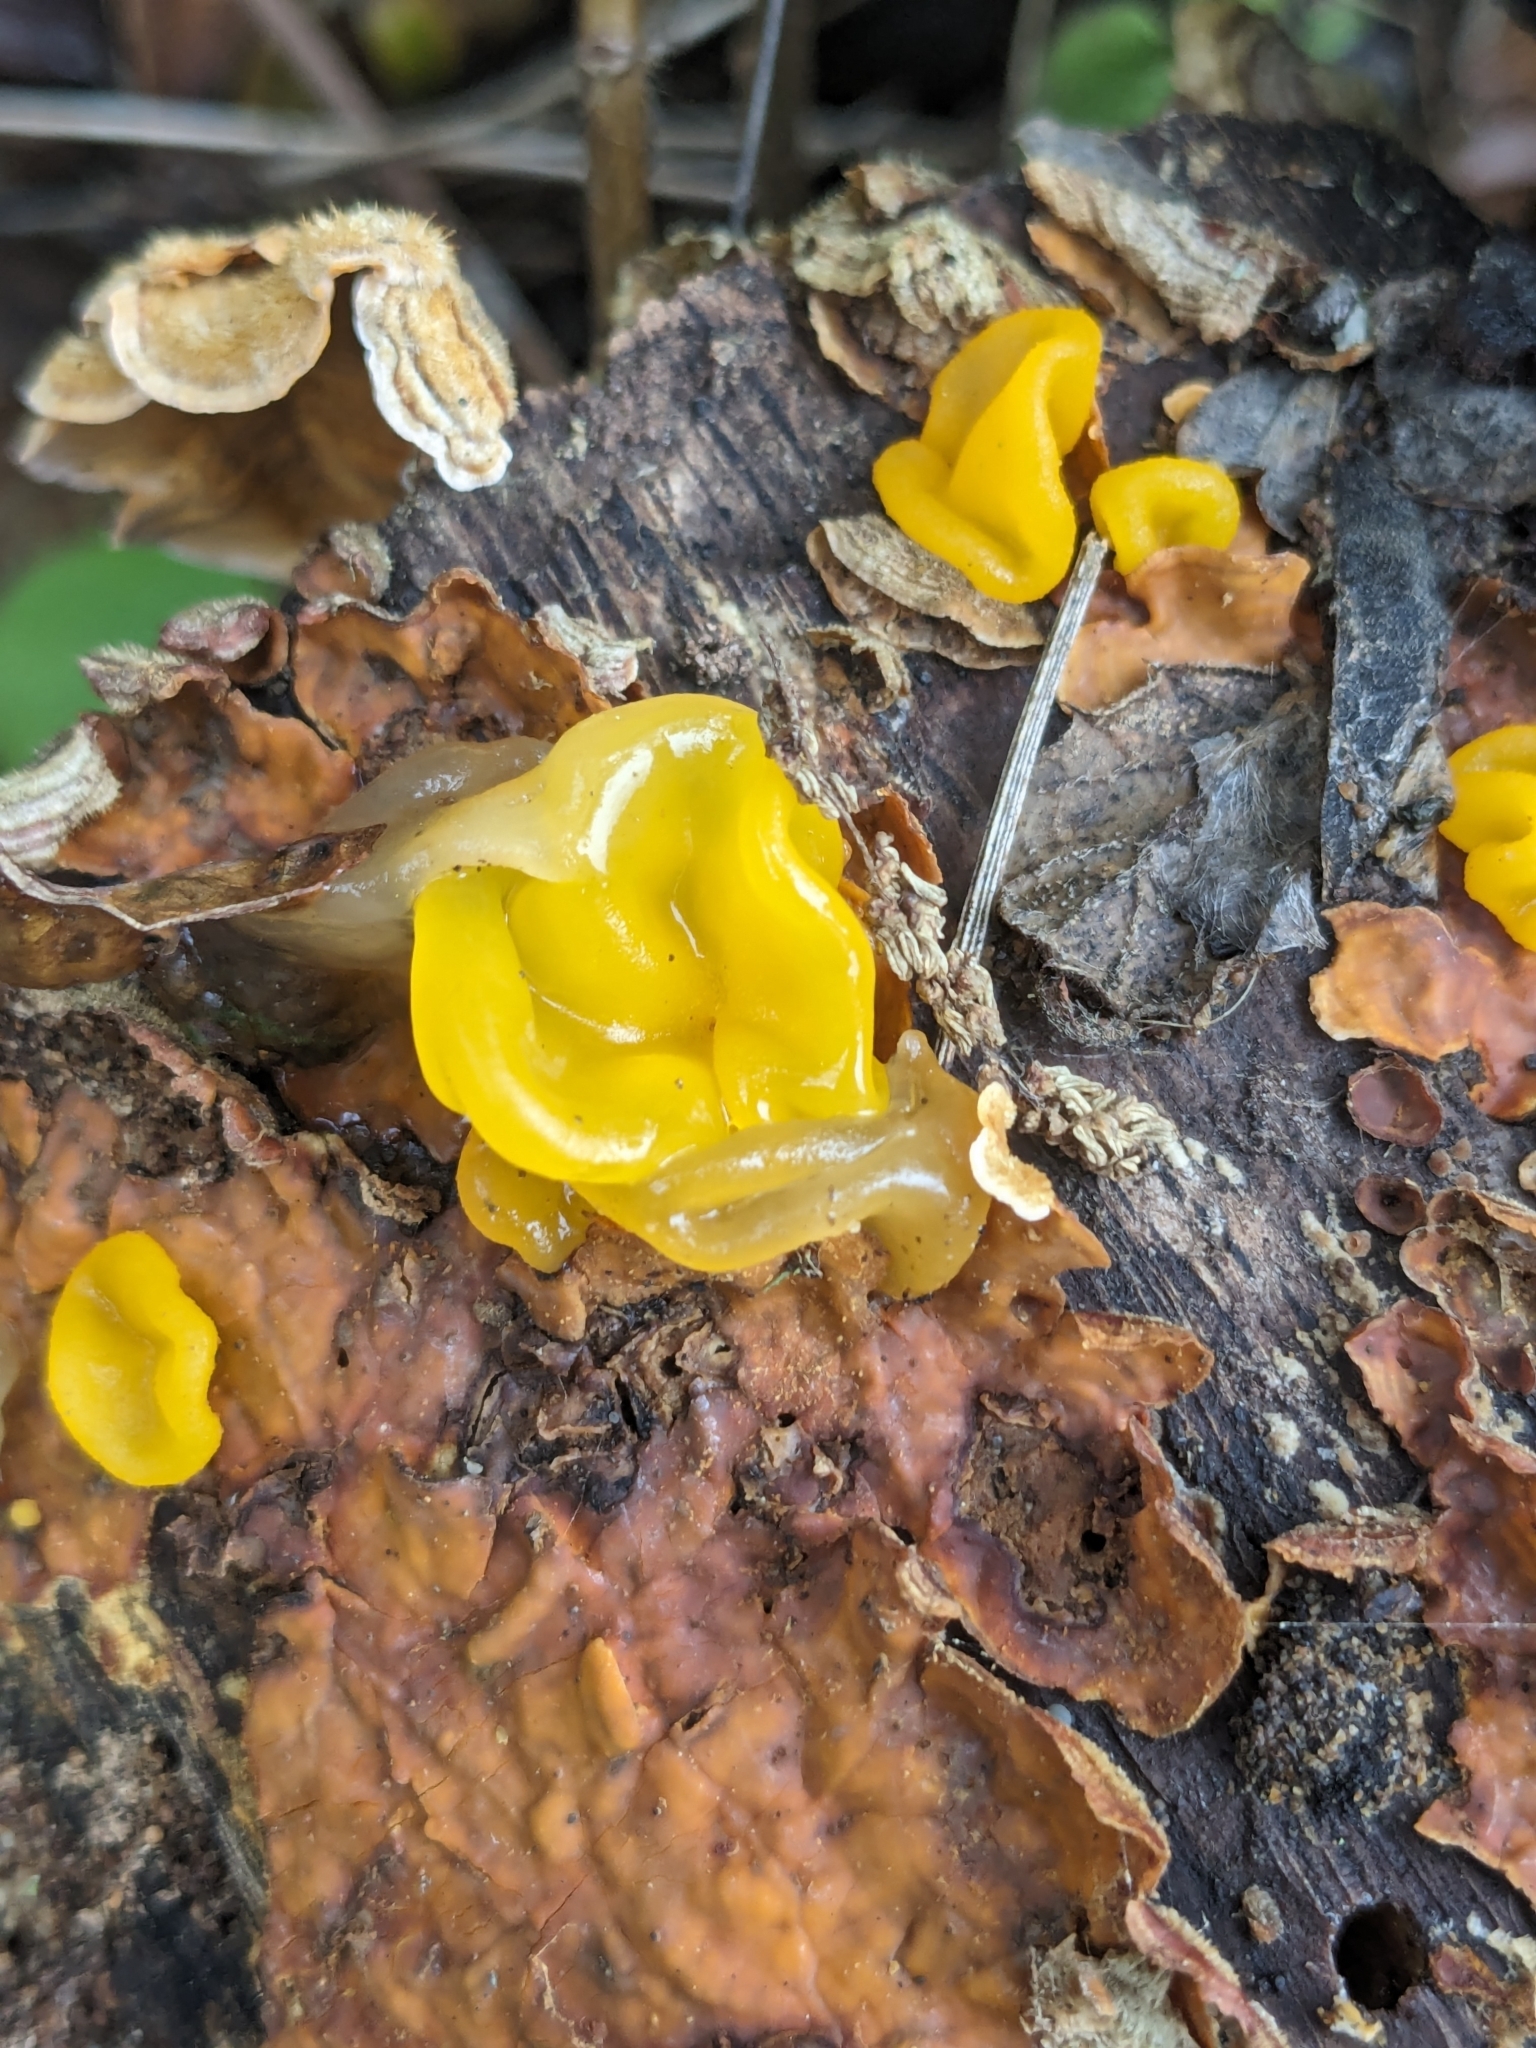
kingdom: Fungi
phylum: Basidiomycota
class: Tremellomycetes
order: Tremellales
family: Naemateliaceae
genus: Naematelia
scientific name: Naematelia aurantia
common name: Golden ear
